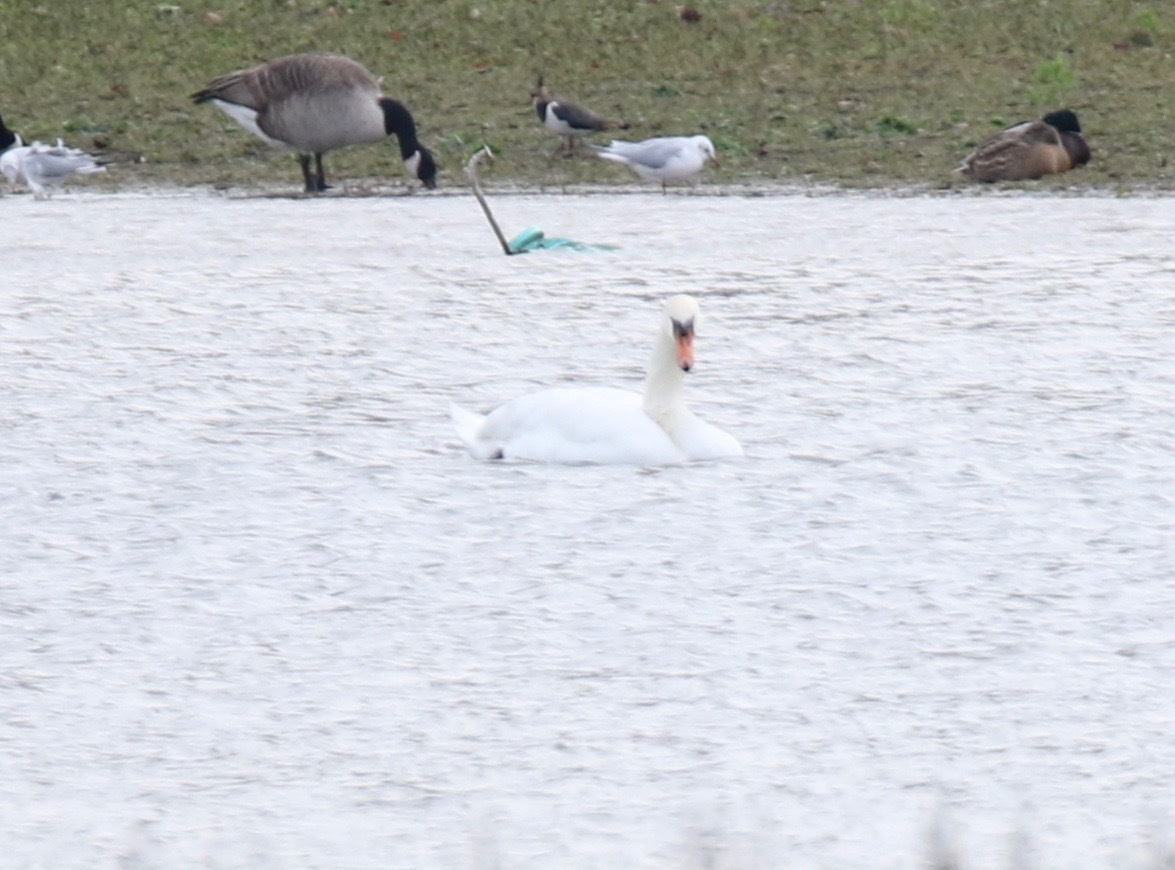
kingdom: Animalia
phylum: Chordata
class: Aves
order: Anseriformes
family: Anatidae
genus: Cygnus
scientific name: Cygnus olor
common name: Mute swan
